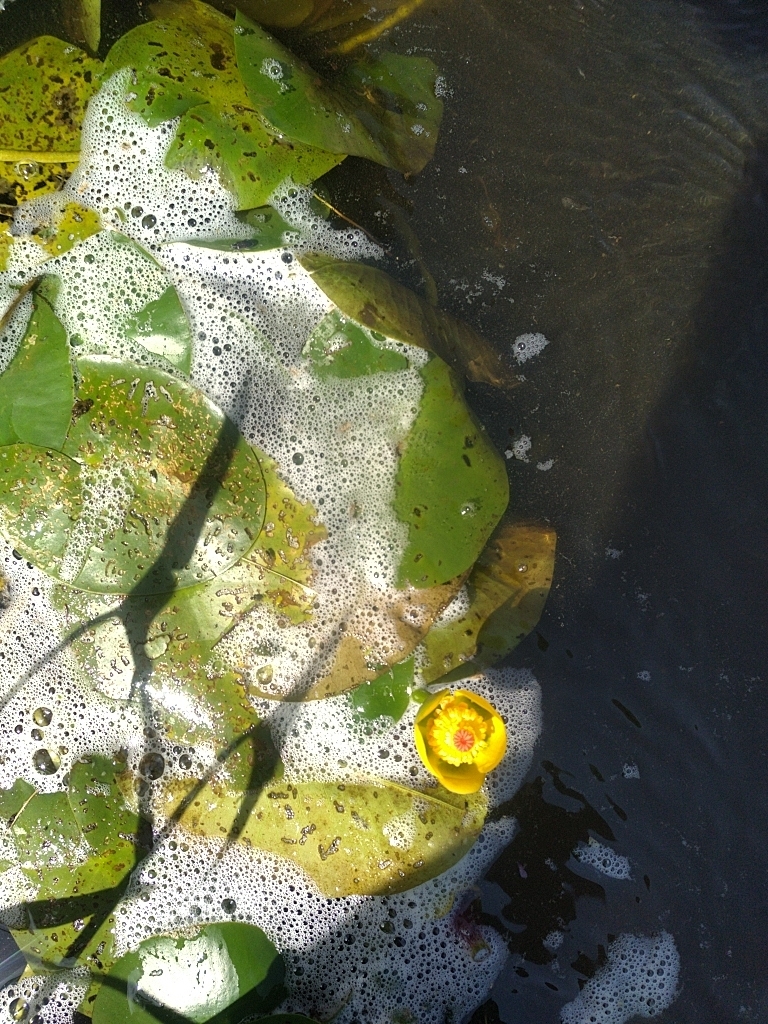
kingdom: Plantae
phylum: Tracheophyta
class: Magnoliopsida
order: Nymphaeales
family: Nymphaeaceae
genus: Nuphar
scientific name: Nuphar variegata
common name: Beaver-root
